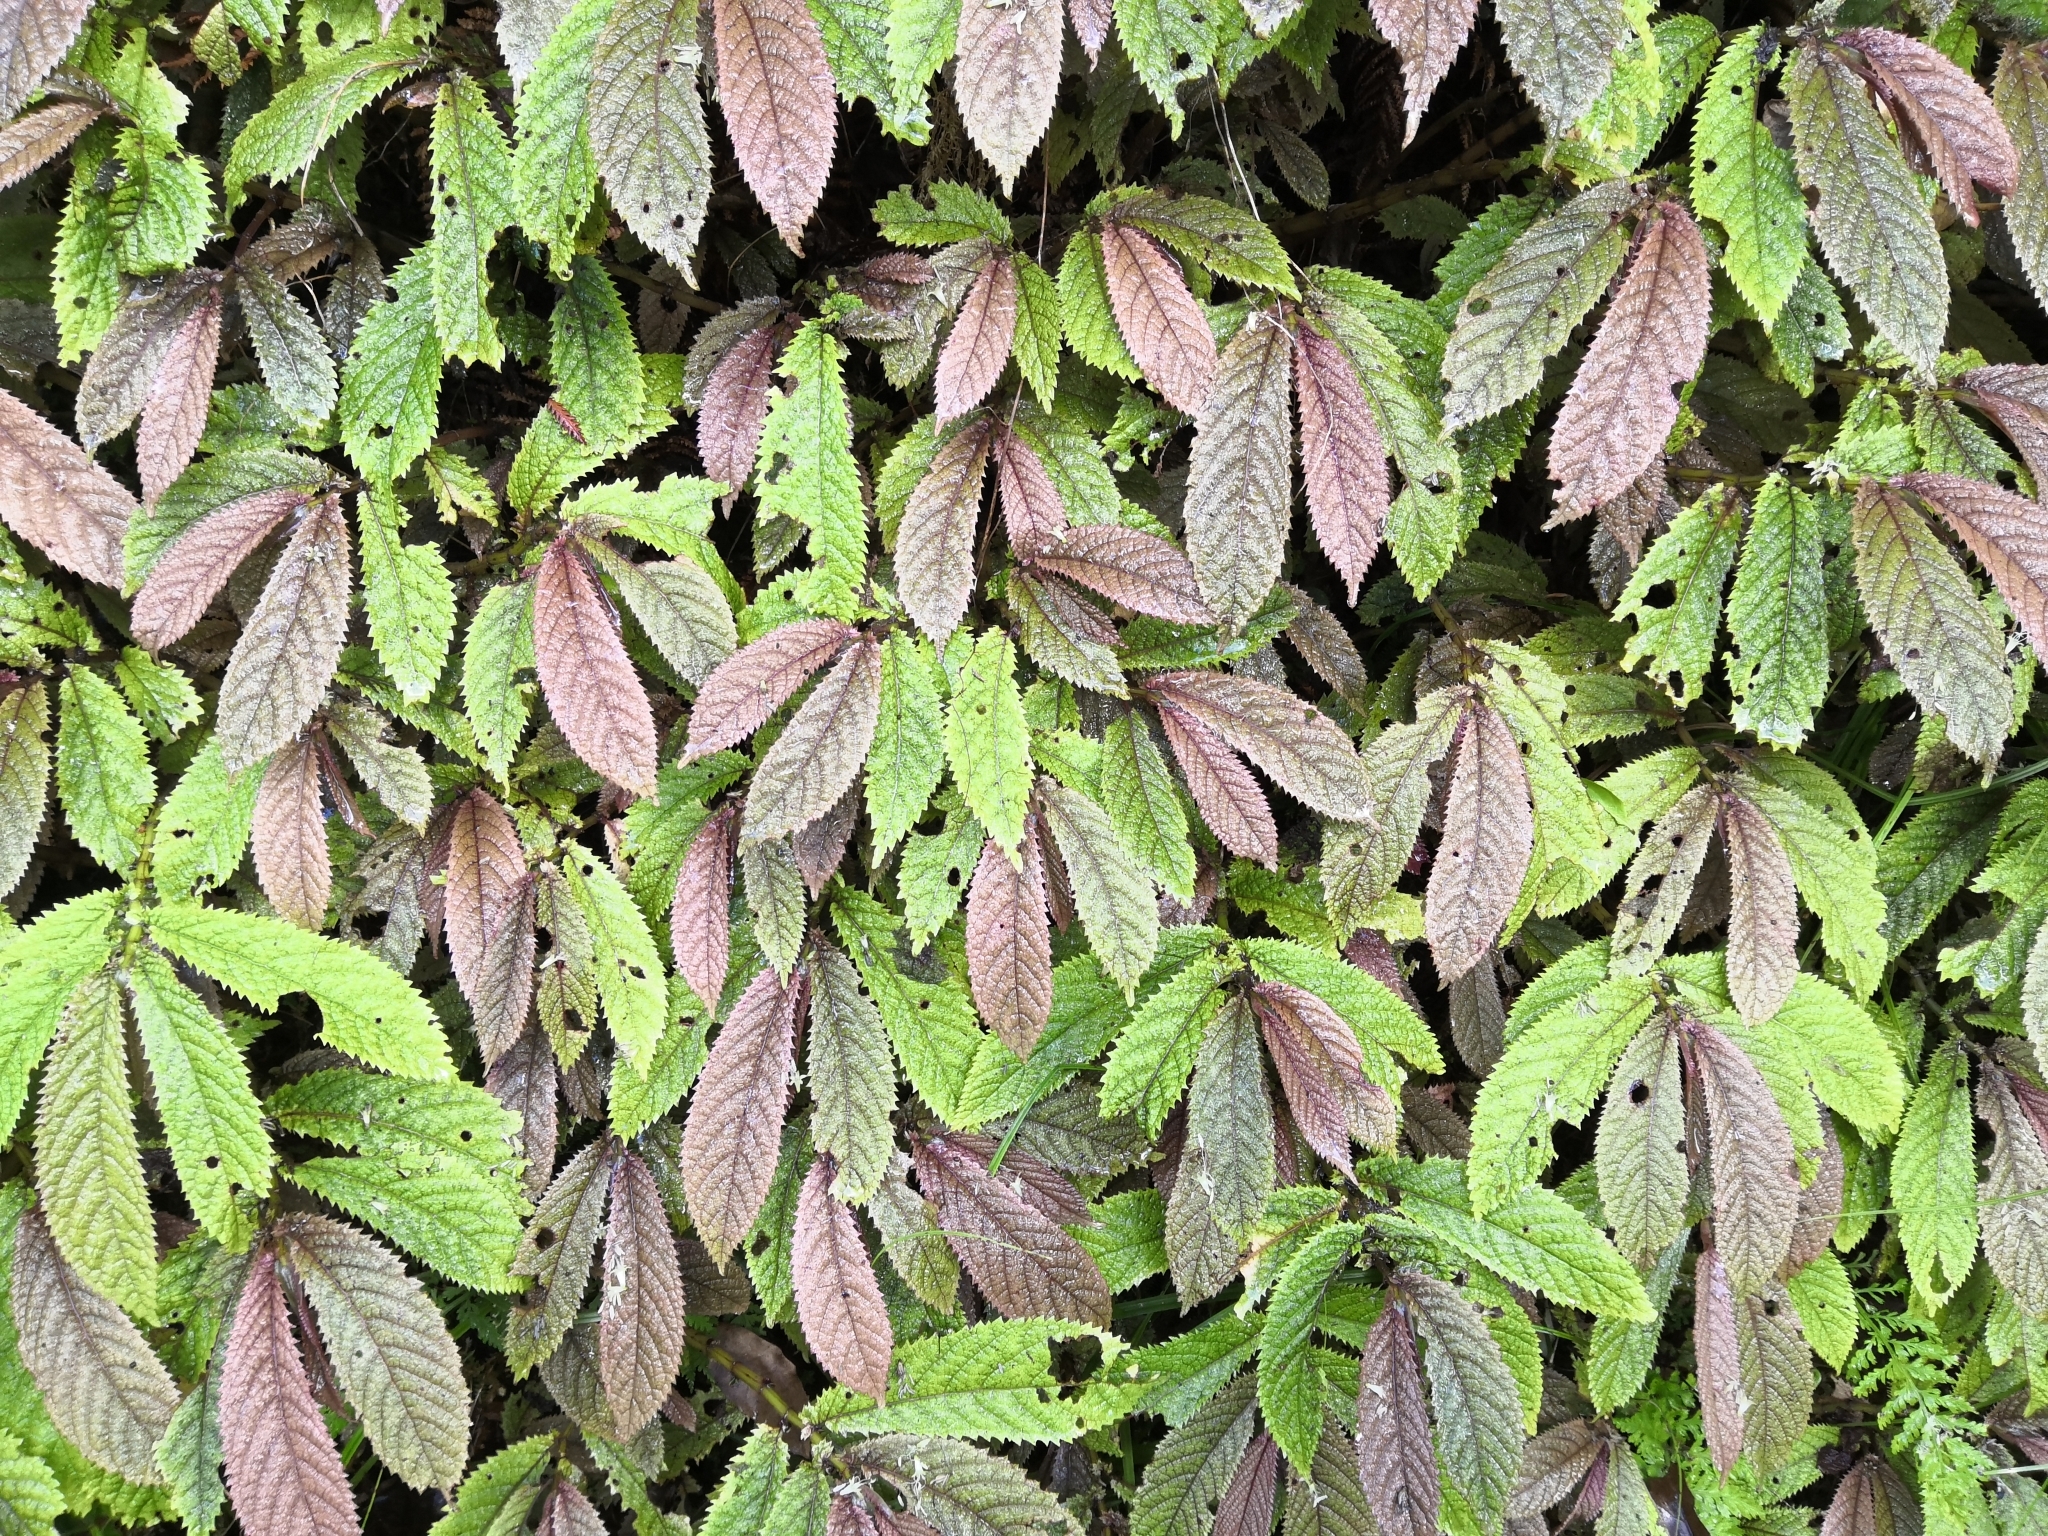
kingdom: Plantae
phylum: Tracheophyta
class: Magnoliopsida
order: Rosales
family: Urticaceae
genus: Elatostema
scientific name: Elatostema rugosum
